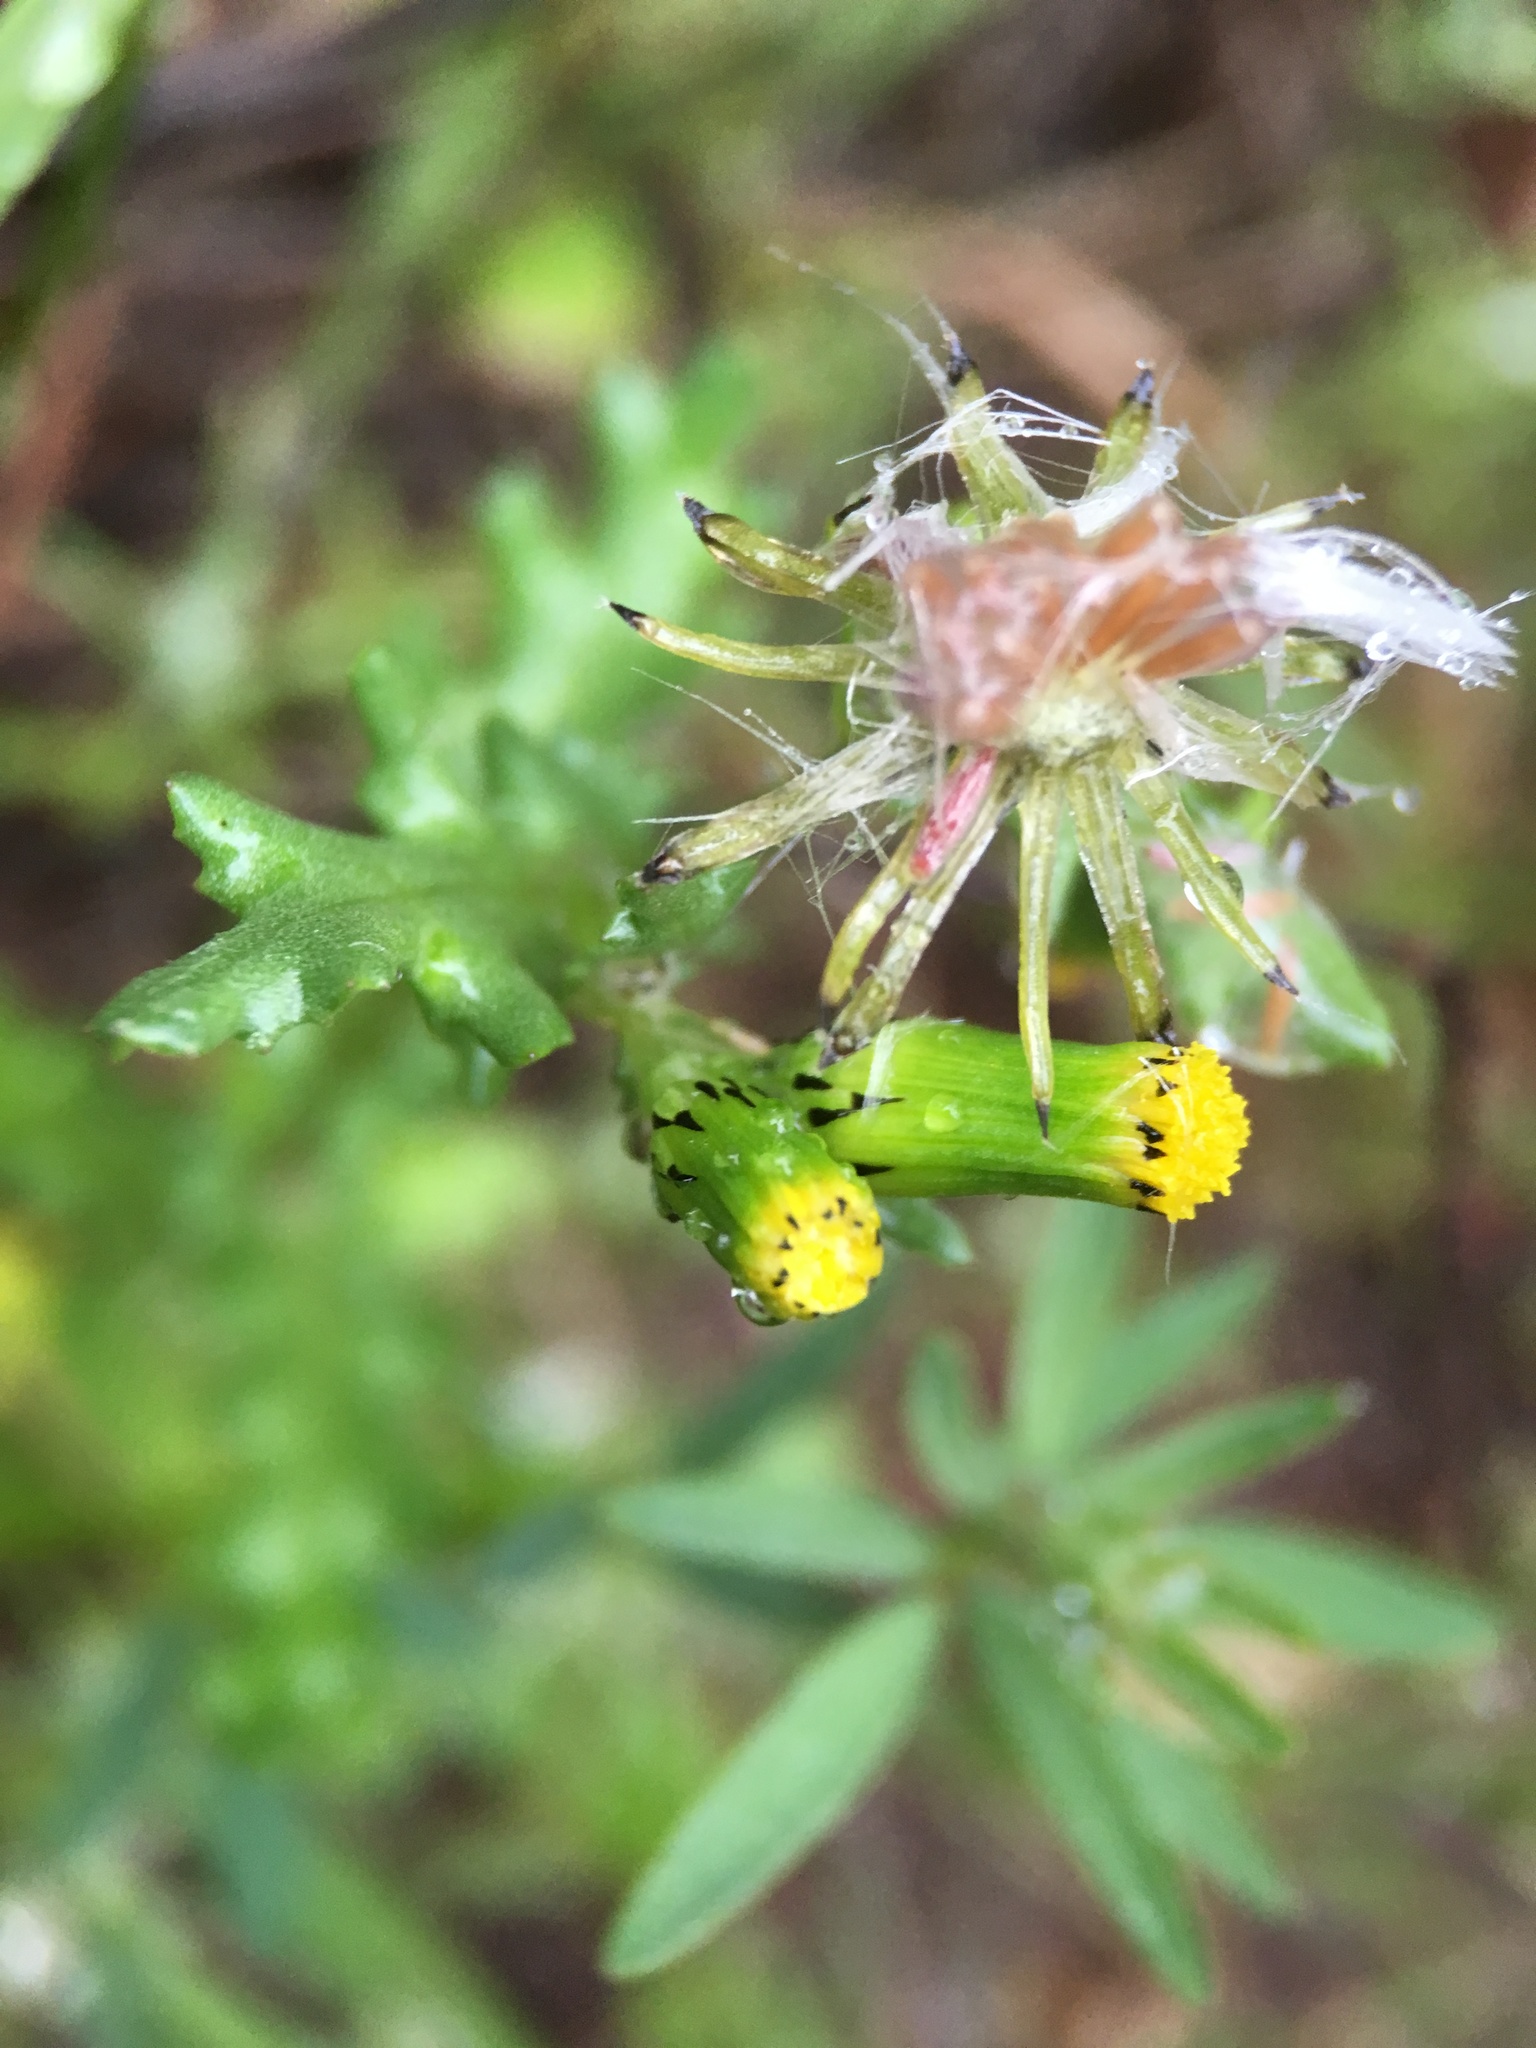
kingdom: Plantae
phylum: Tracheophyta
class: Magnoliopsida
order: Asterales
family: Asteraceae
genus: Senecio
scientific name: Senecio vulgaris
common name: Old-man-in-the-spring
